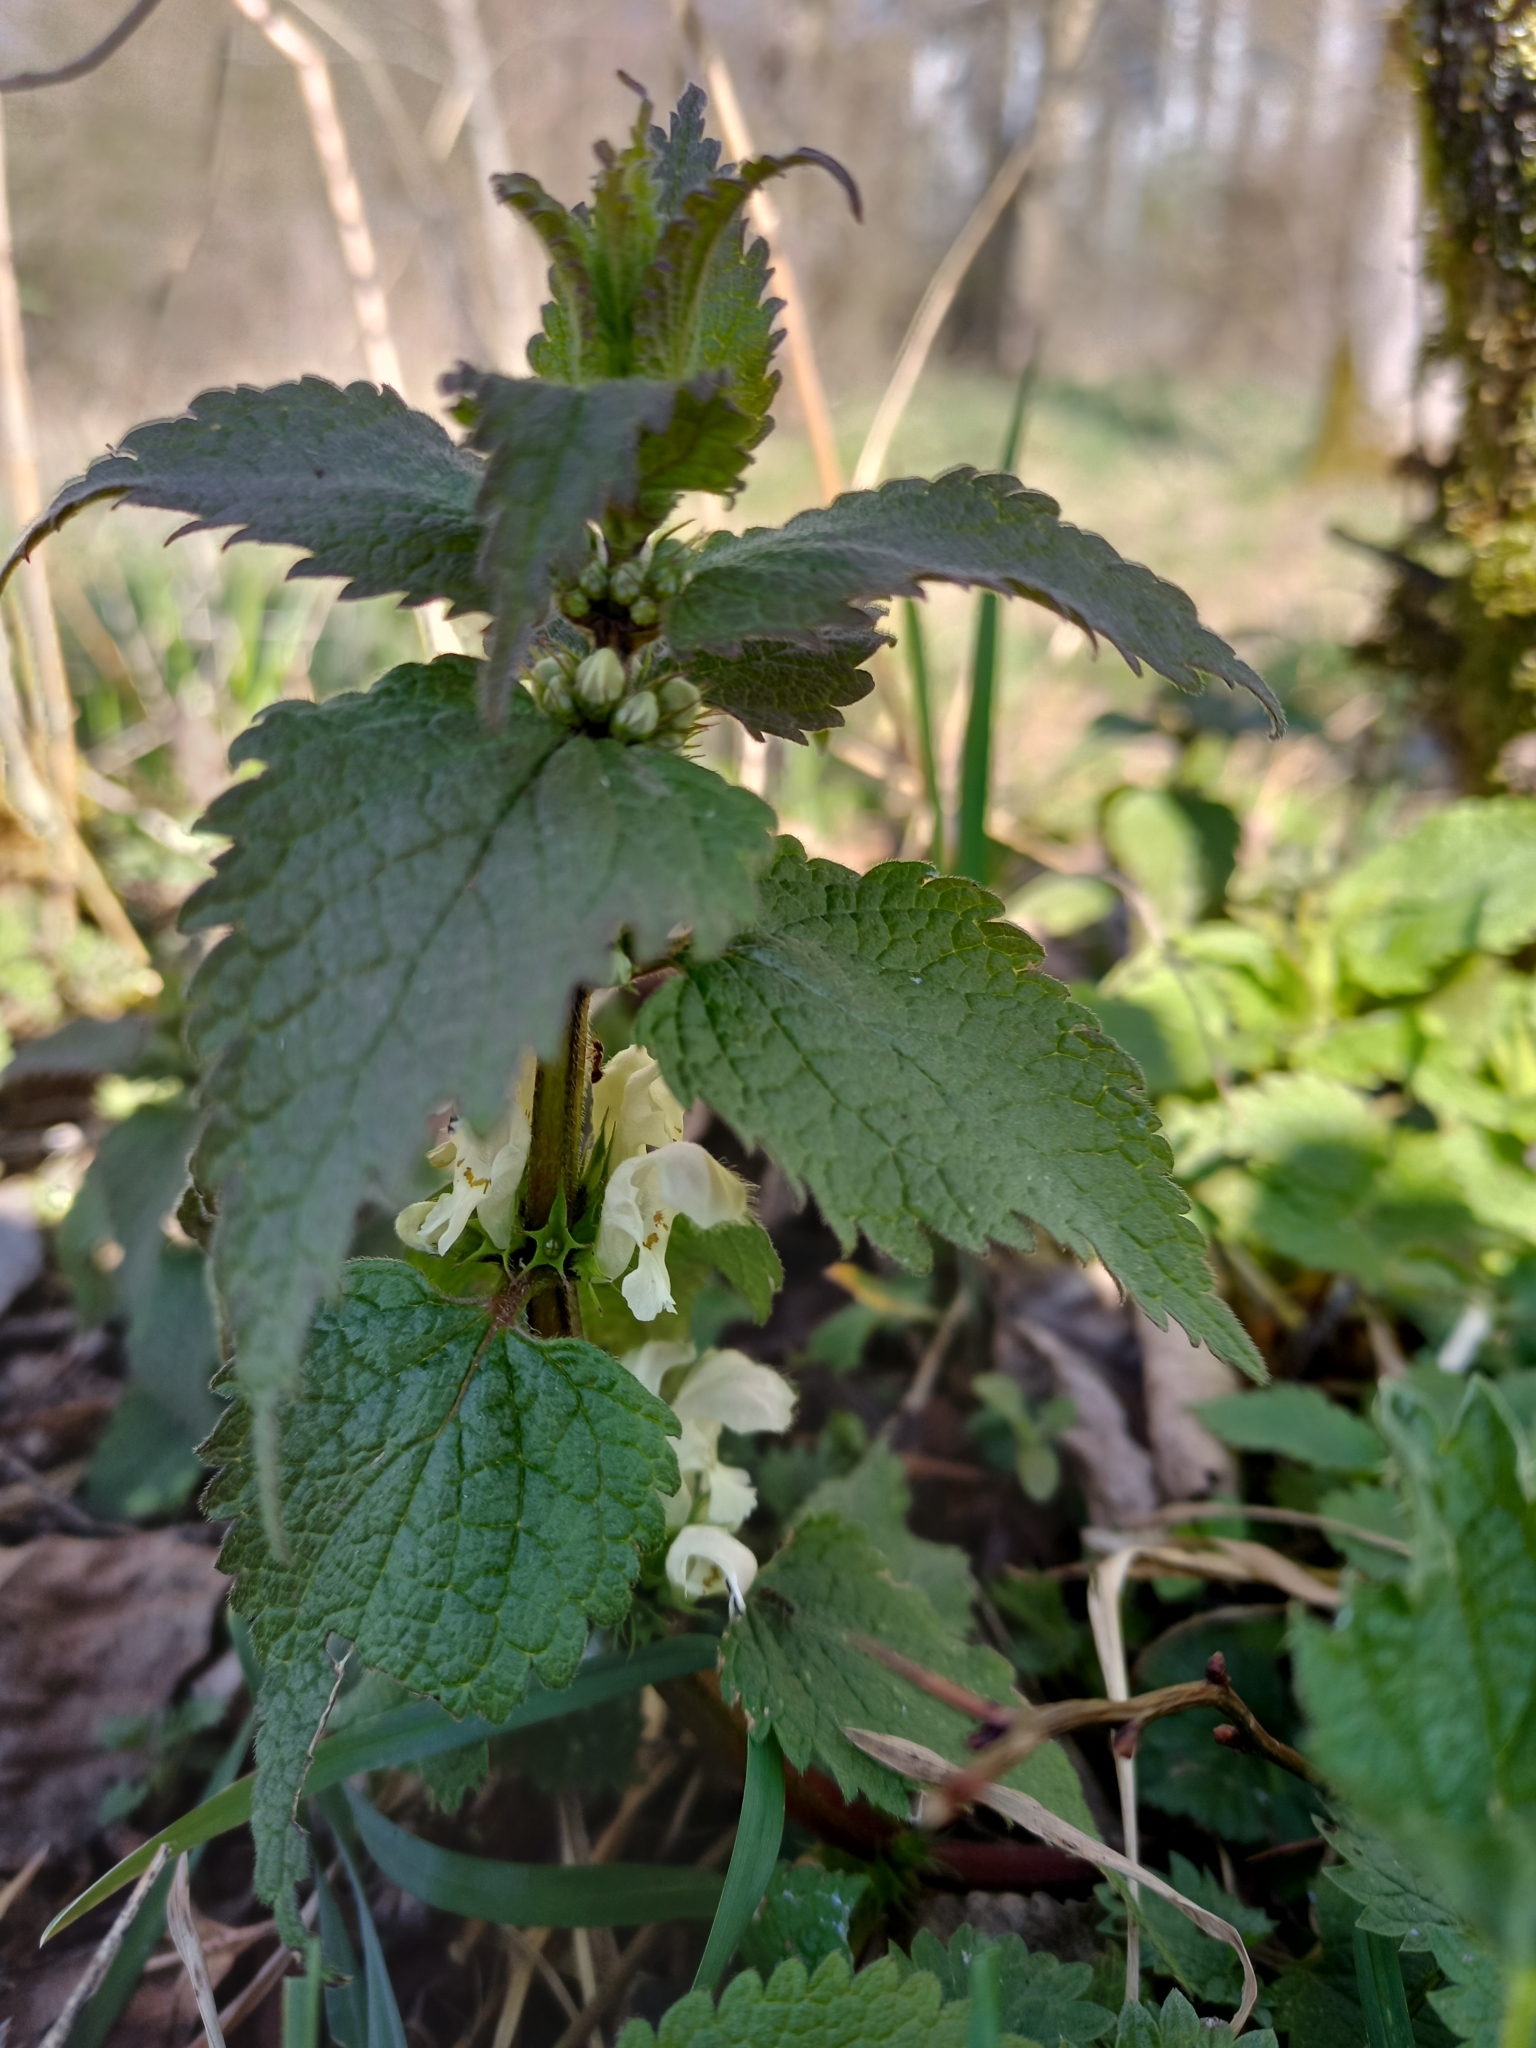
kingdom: Plantae
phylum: Tracheophyta
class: Magnoliopsida
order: Lamiales
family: Lamiaceae
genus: Lamium
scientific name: Lamium album
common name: White dead-nettle
